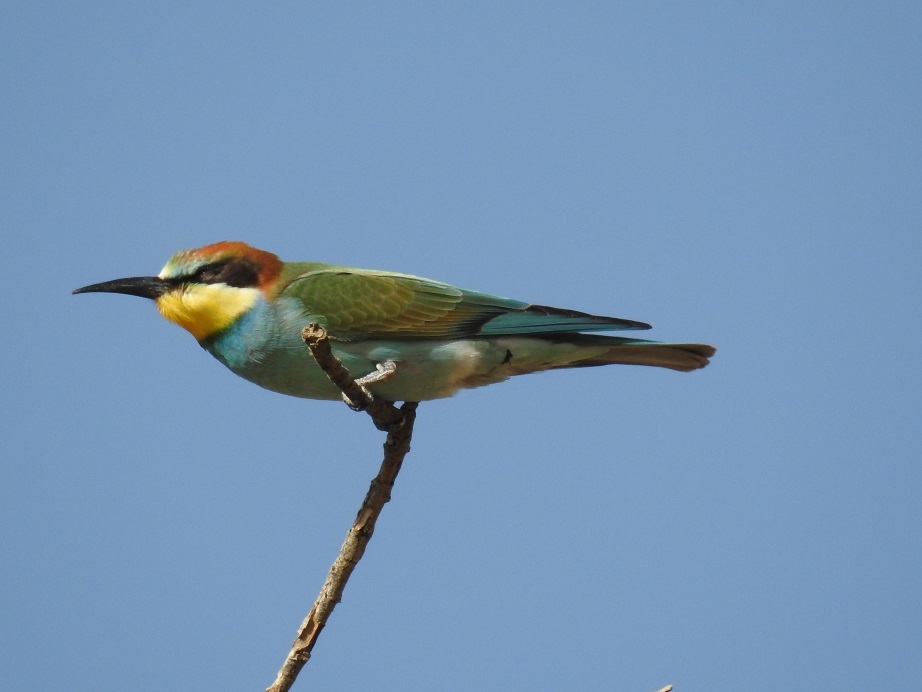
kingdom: Animalia
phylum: Chordata
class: Aves
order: Coraciiformes
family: Meropidae
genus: Merops
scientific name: Merops apiaster
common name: European bee-eater
